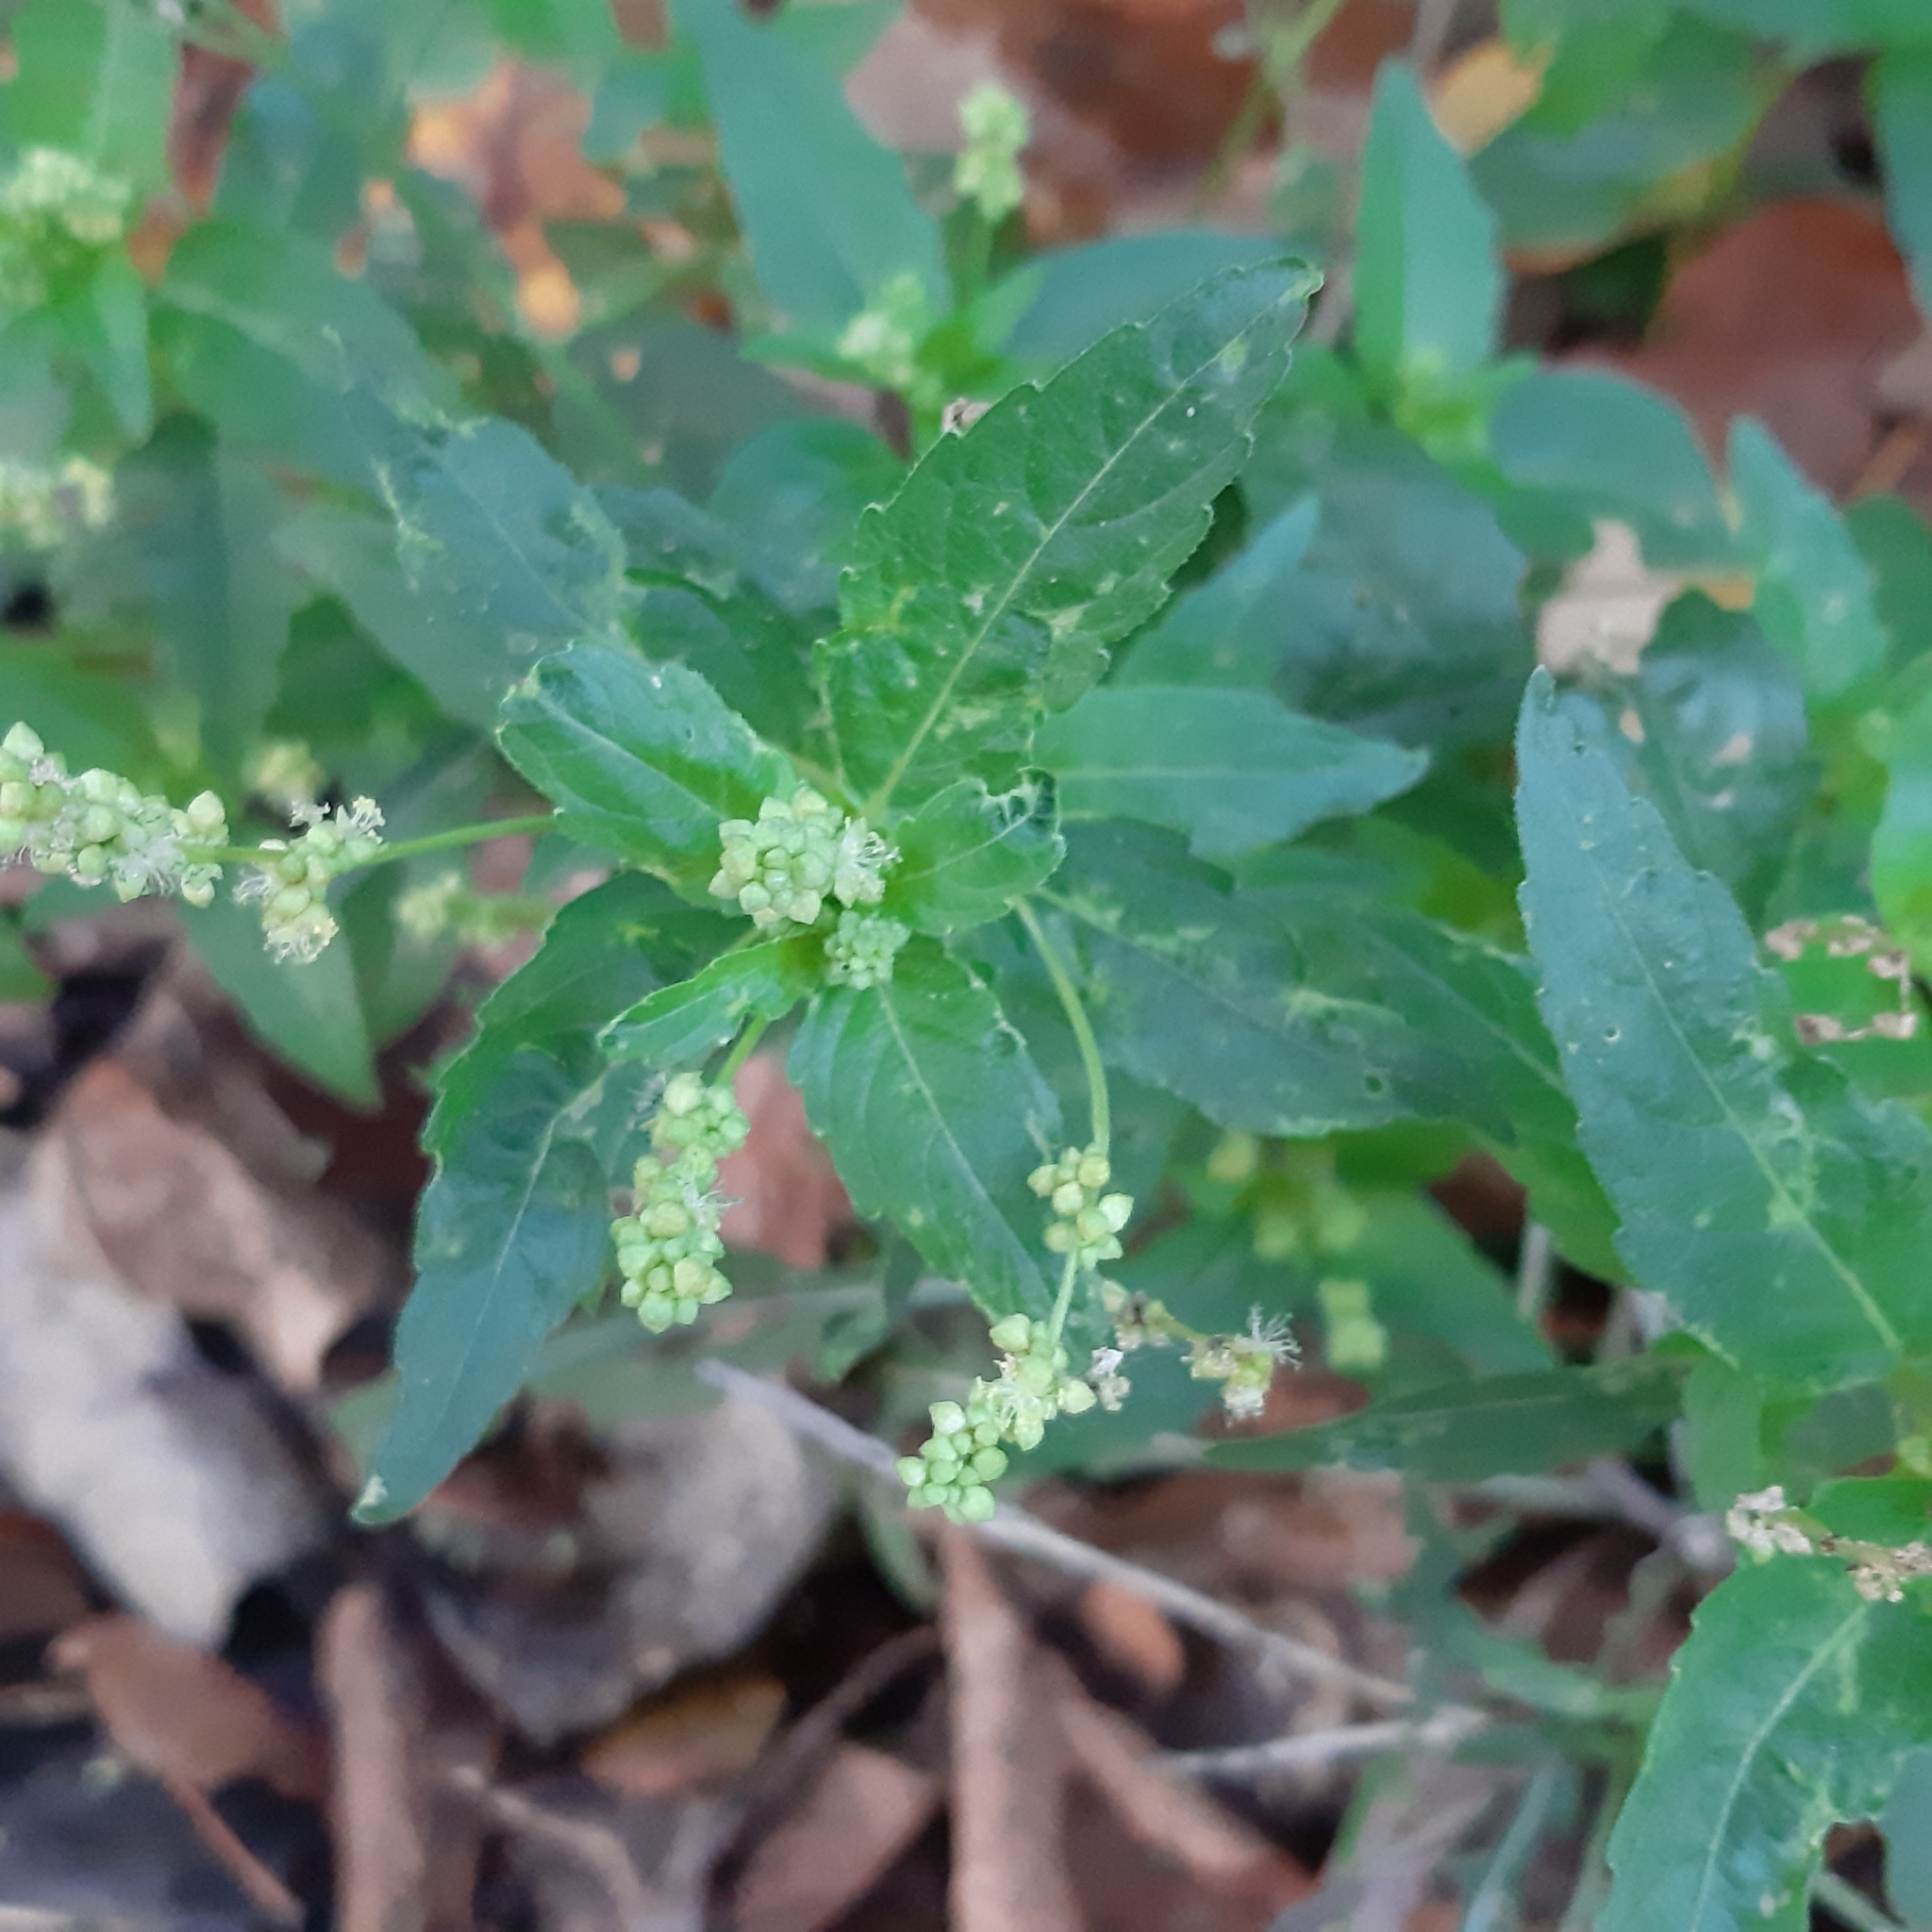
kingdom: Plantae
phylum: Tracheophyta
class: Magnoliopsida
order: Malpighiales
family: Euphorbiaceae
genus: Mercurialis
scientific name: Mercurialis annua
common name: Annual mercury
